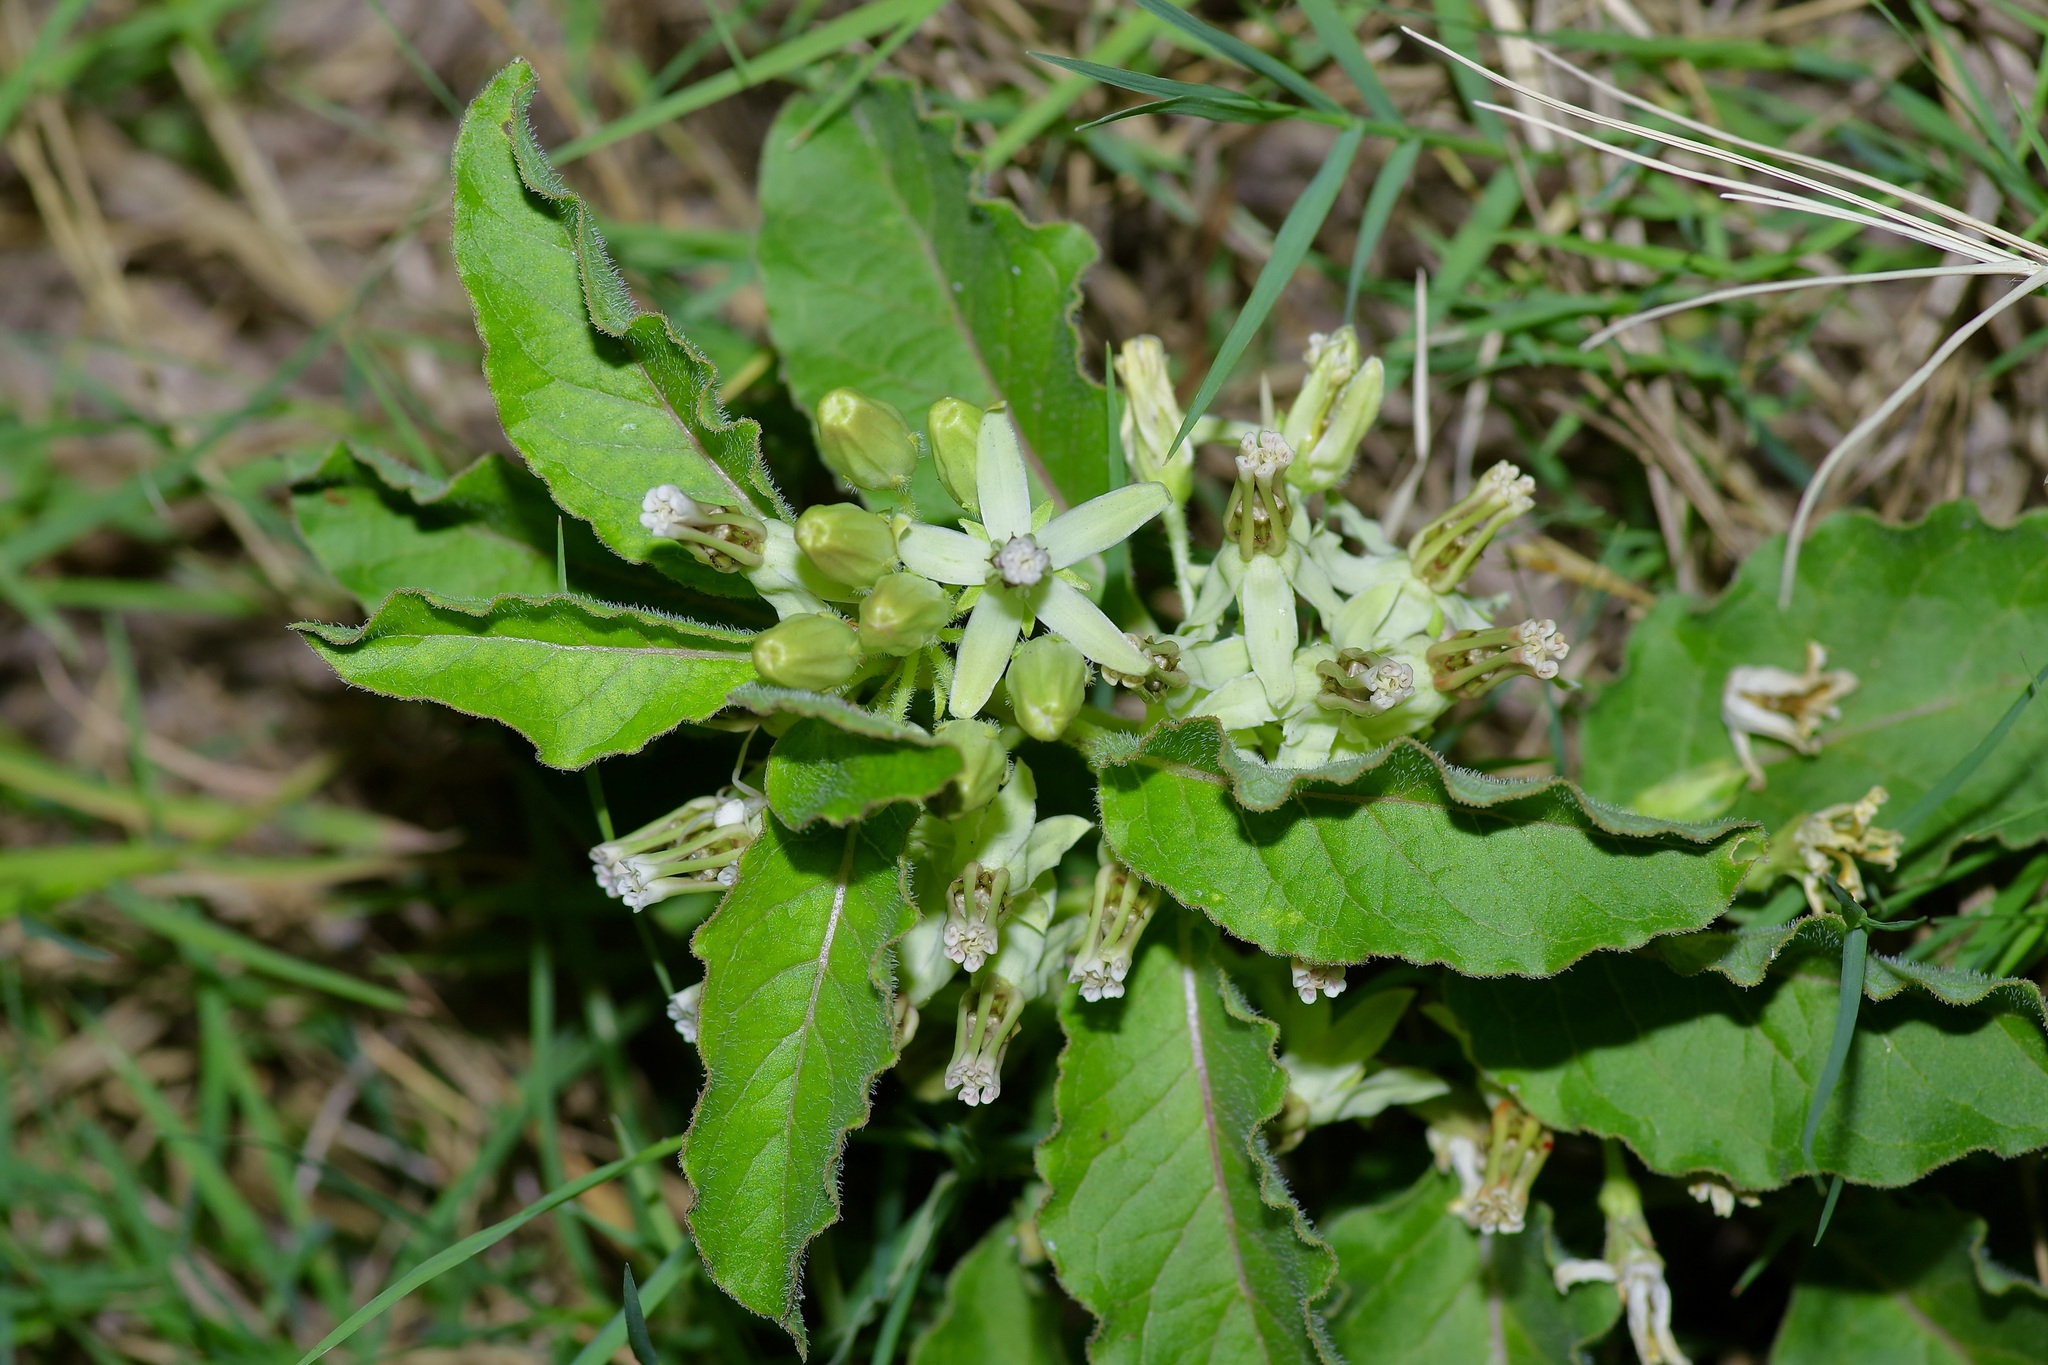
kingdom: Plantae
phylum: Tracheophyta
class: Magnoliopsida
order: Gentianales
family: Apocynaceae
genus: Asclepias
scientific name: Asclepias oenotheroides
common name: Zizotes milkweed
